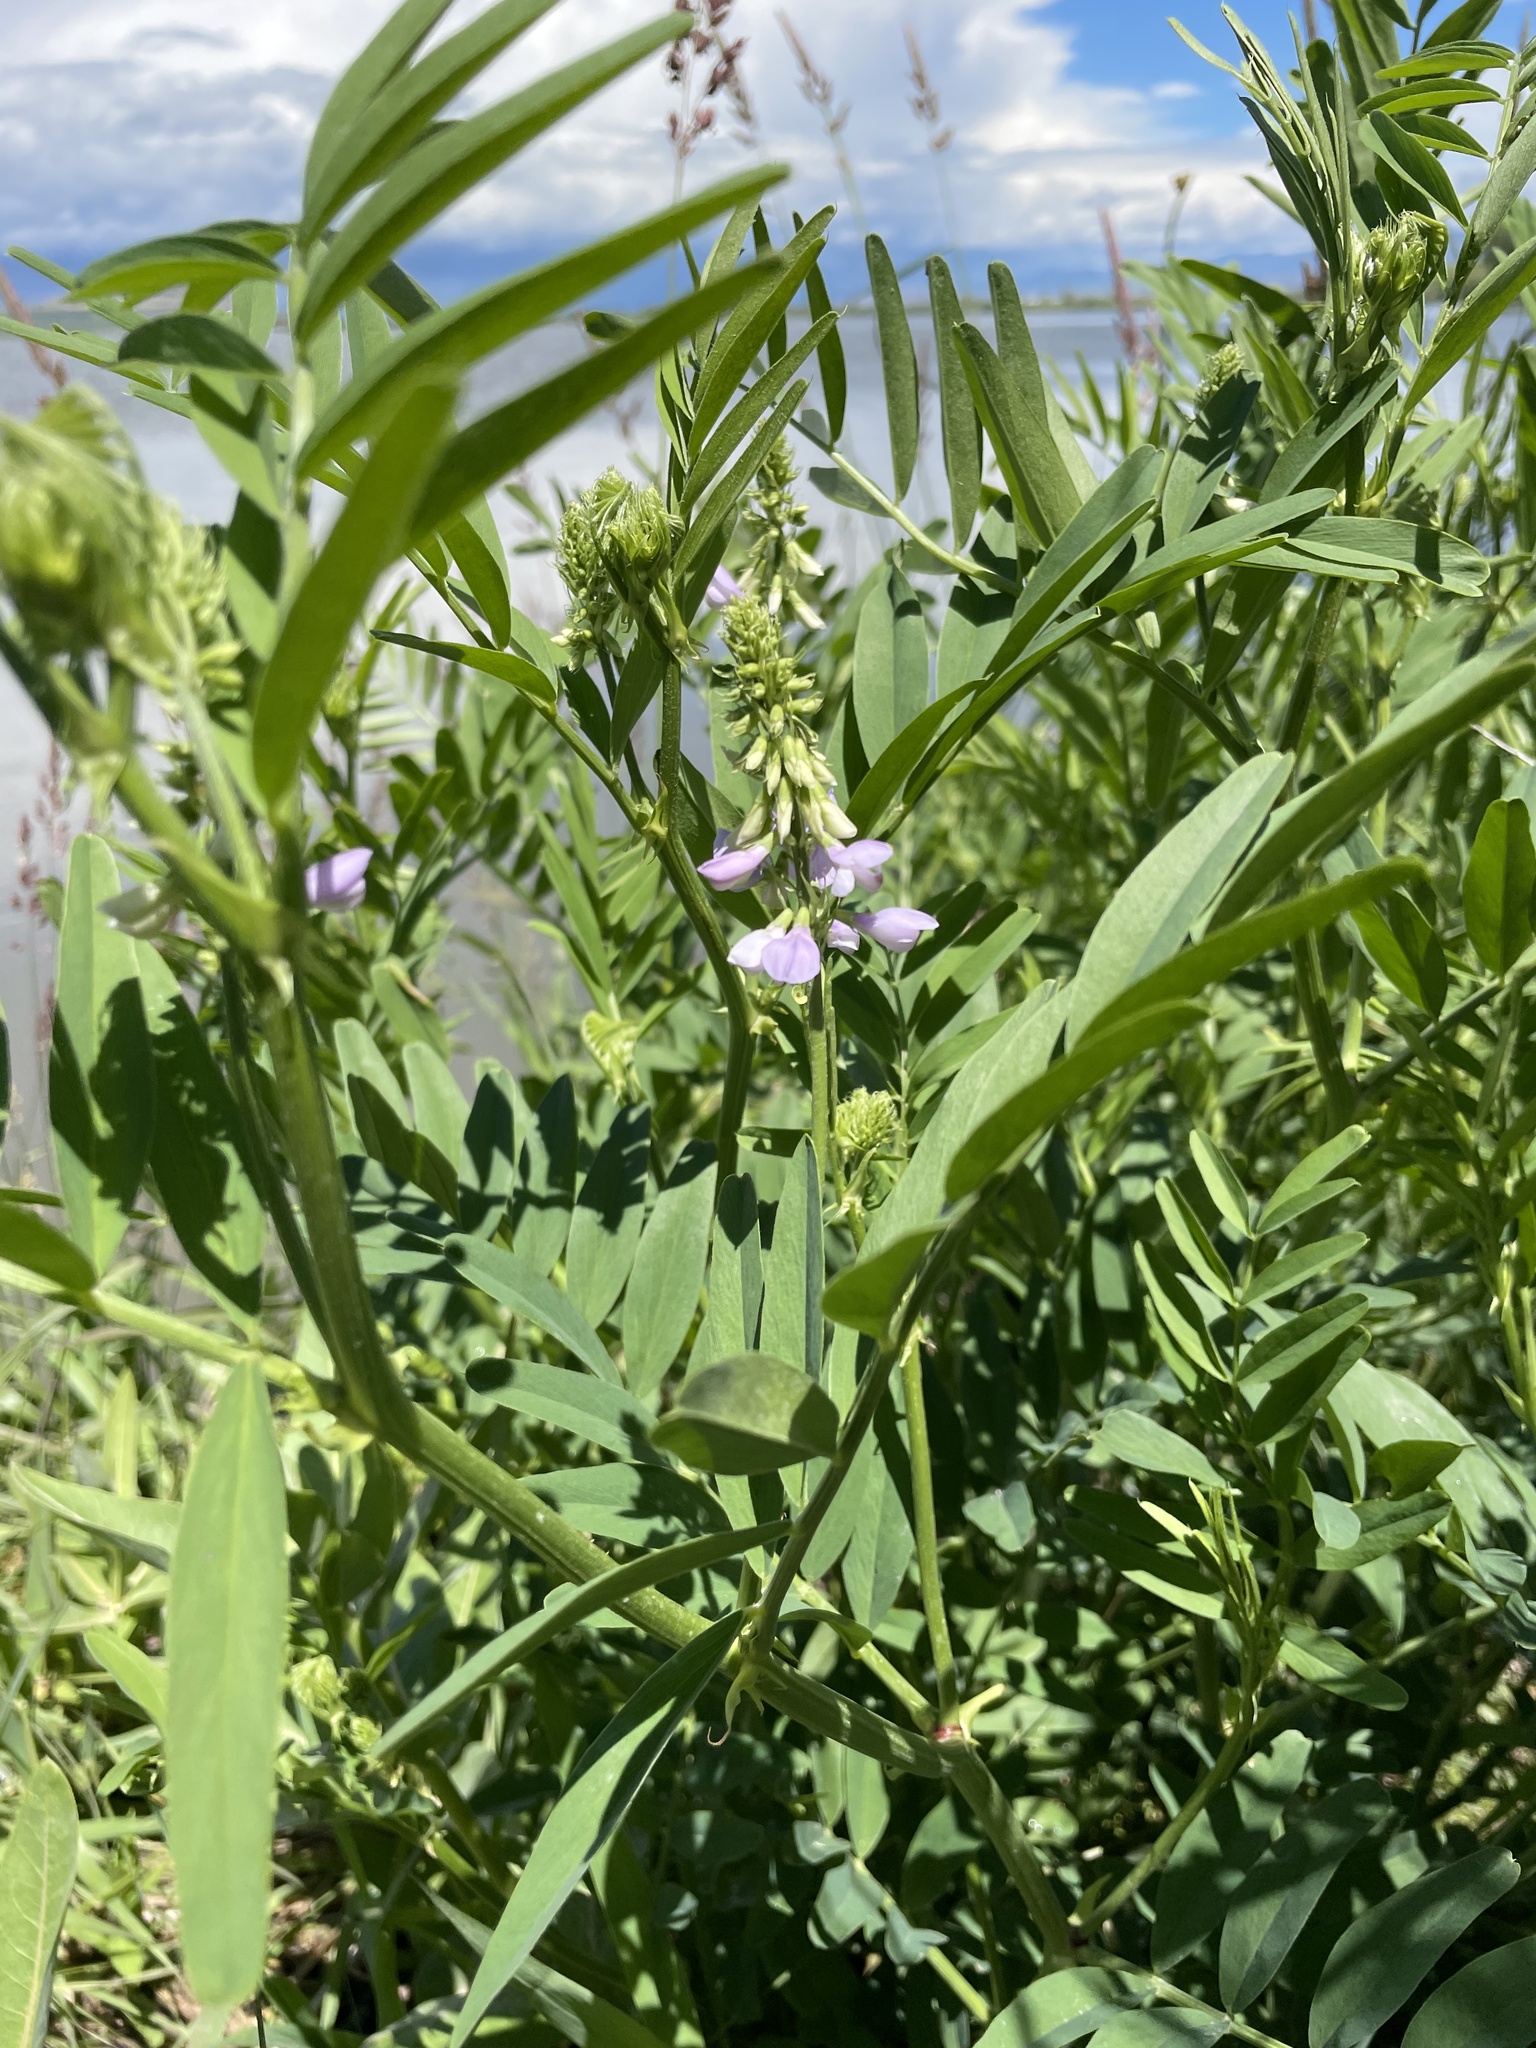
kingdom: Plantae
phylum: Tracheophyta
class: Magnoliopsida
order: Fabales
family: Fabaceae
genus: Galega
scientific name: Galega officinalis
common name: Goat's-rue
